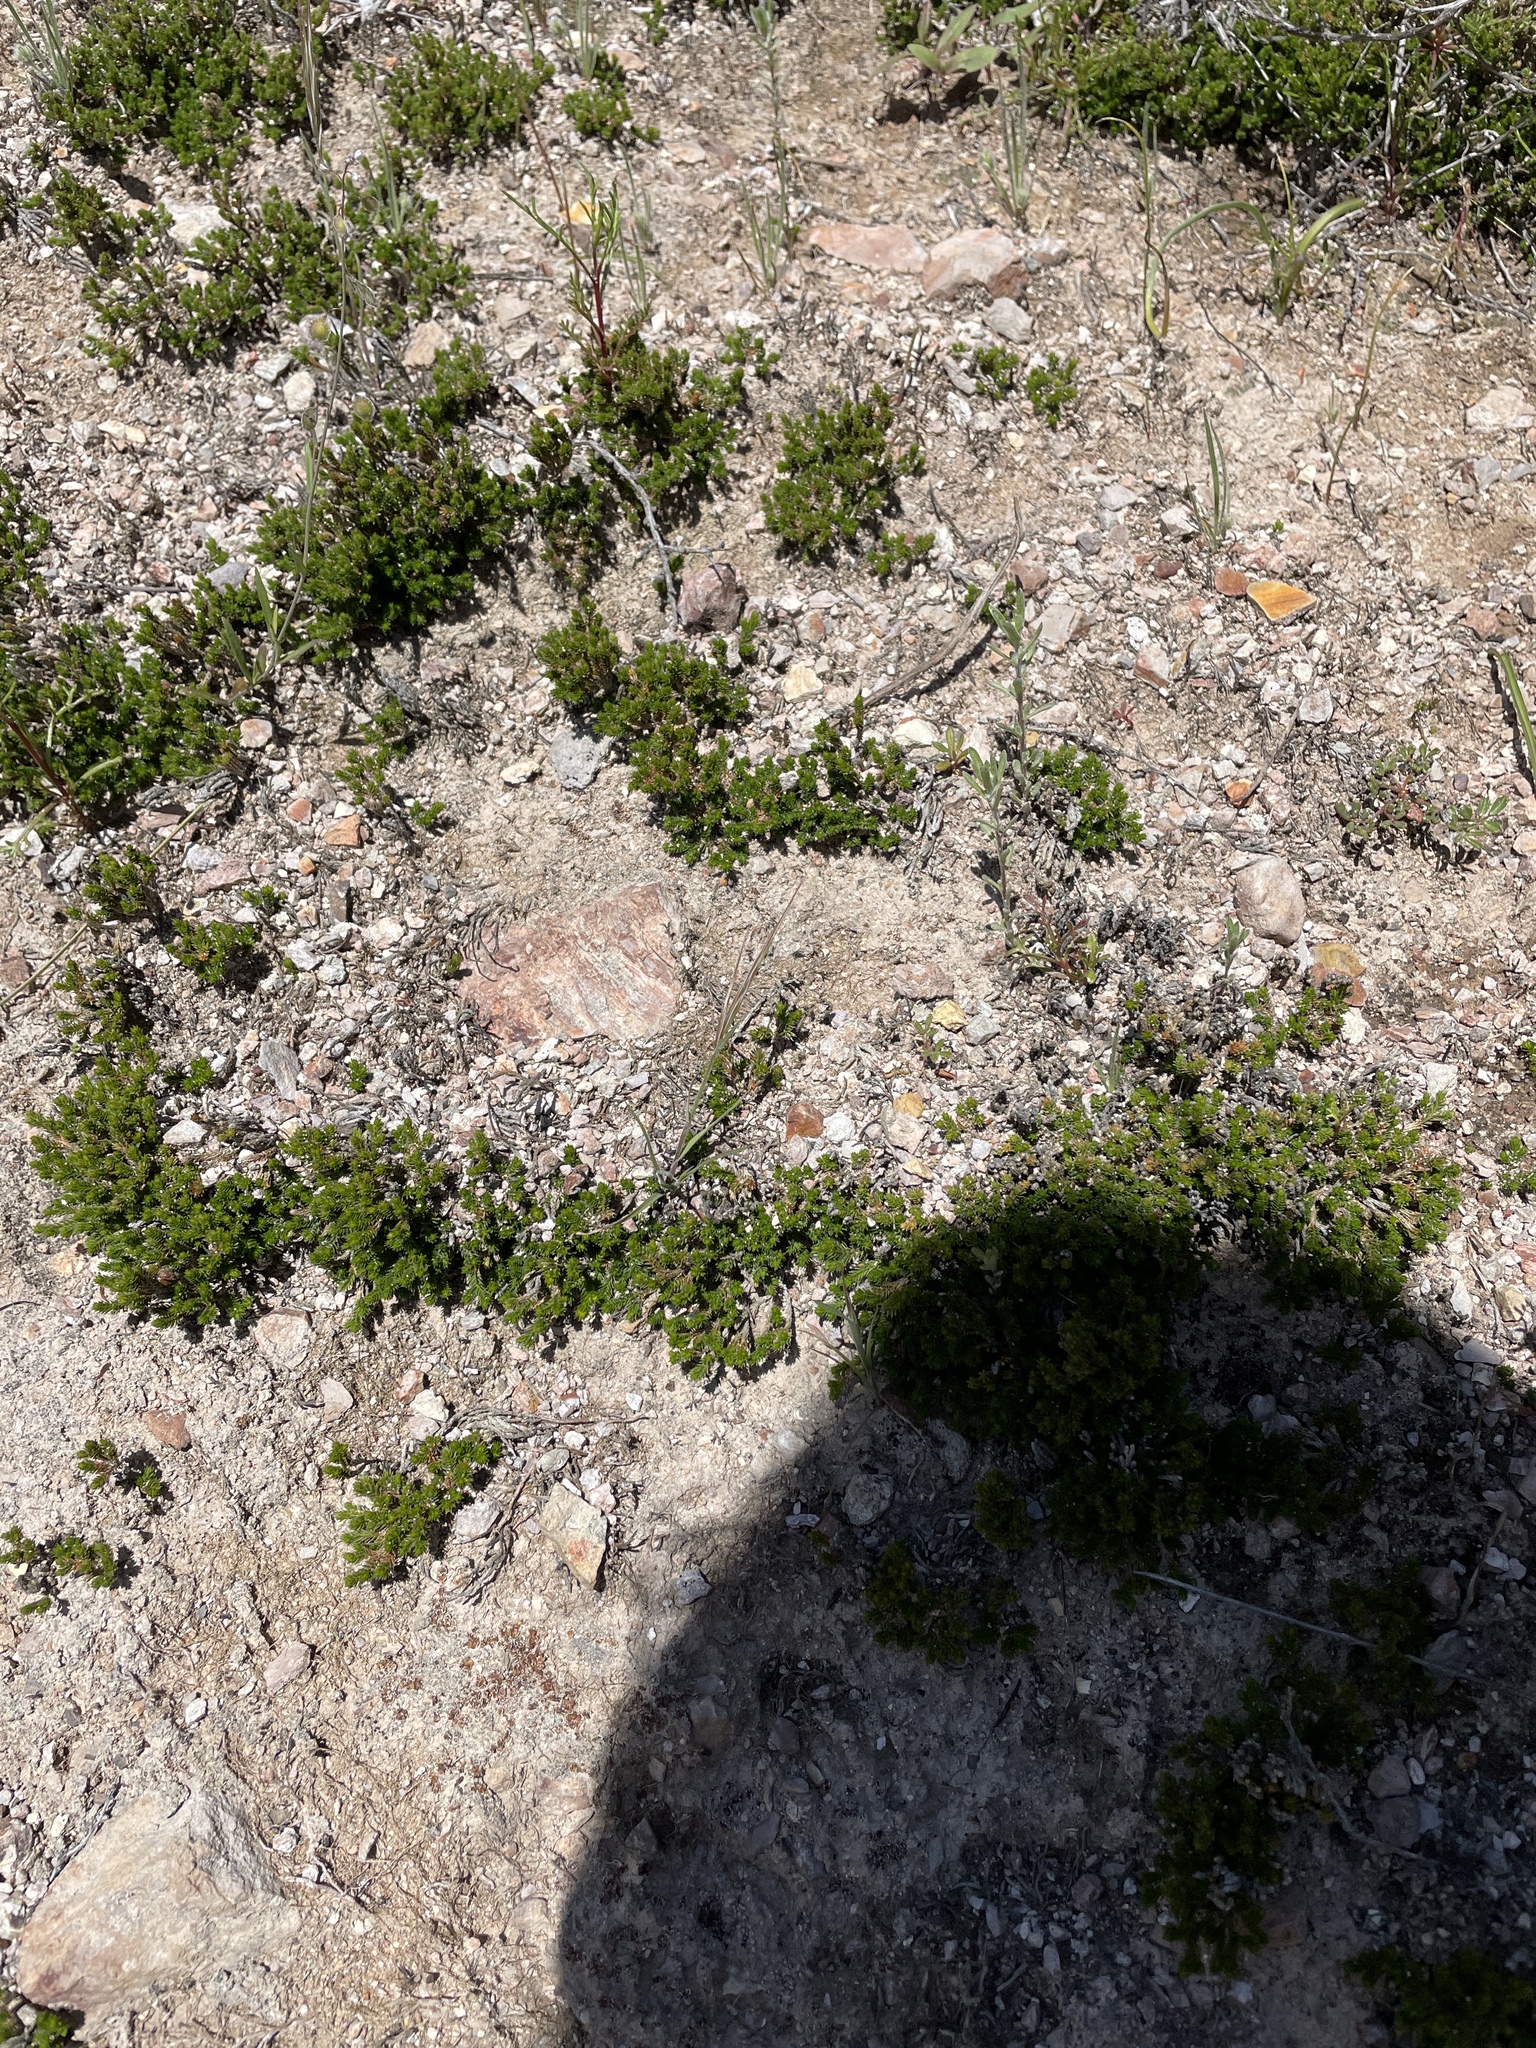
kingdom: Plantae
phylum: Tracheophyta
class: Lycopodiopsida
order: Selaginellales
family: Selaginellaceae
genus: Selaginella
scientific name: Selaginella bigelovii
